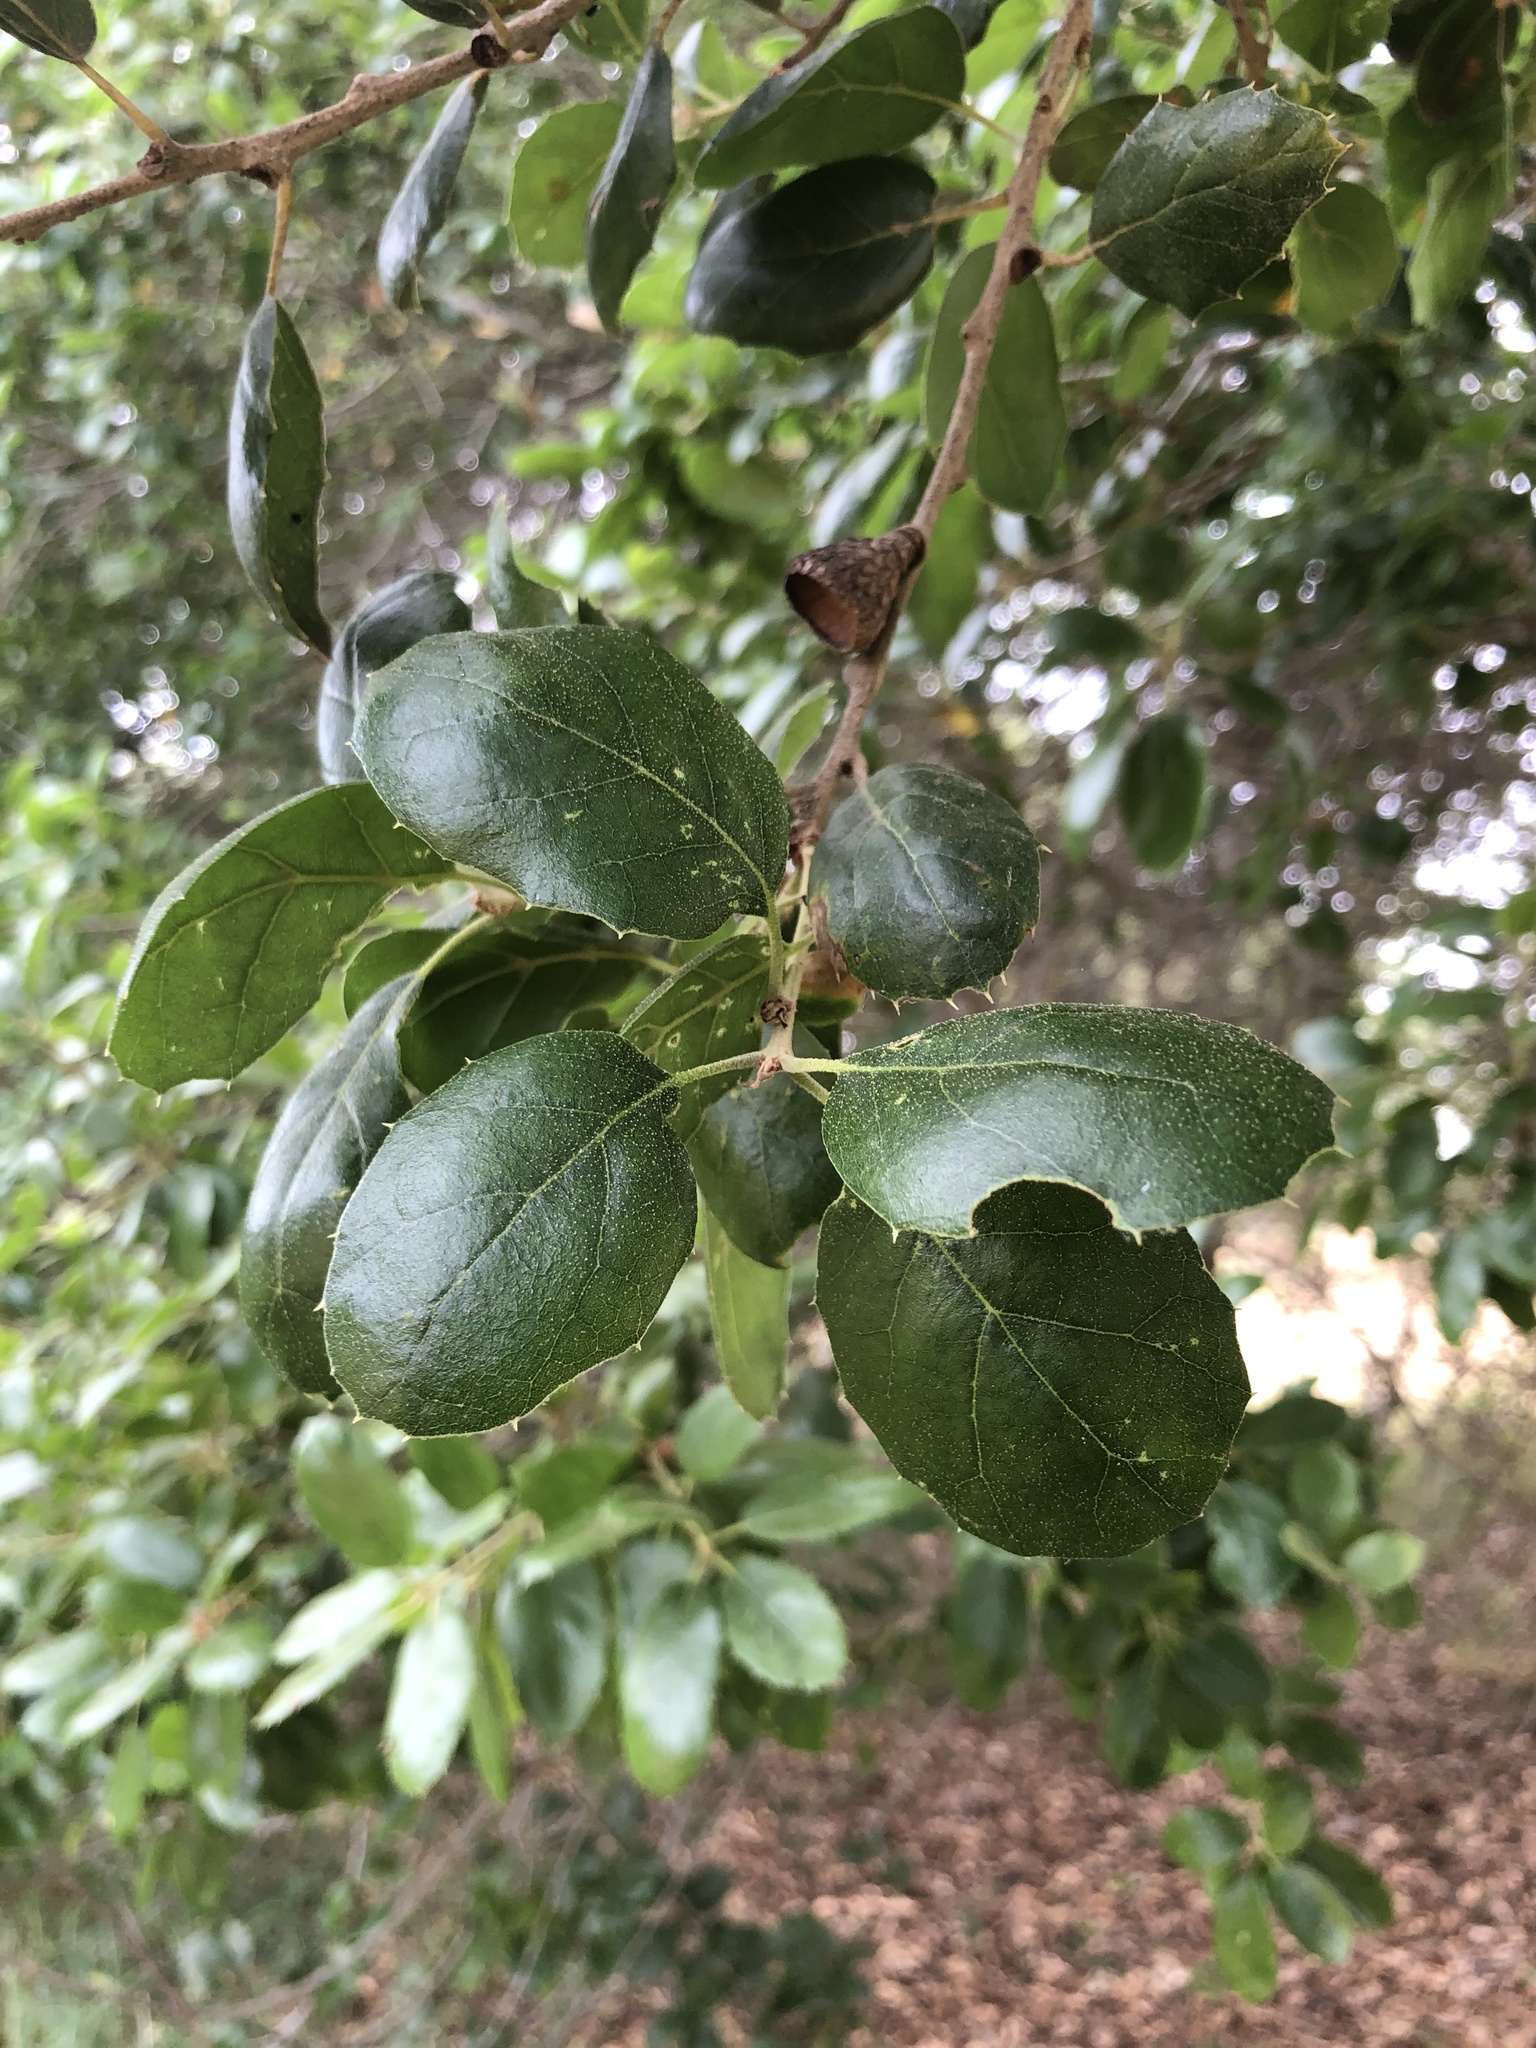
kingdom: Plantae
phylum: Tracheophyta
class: Magnoliopsida
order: Fagales
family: Fagaceae
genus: Quercus
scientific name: Quercus agrifolia
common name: California live oak
